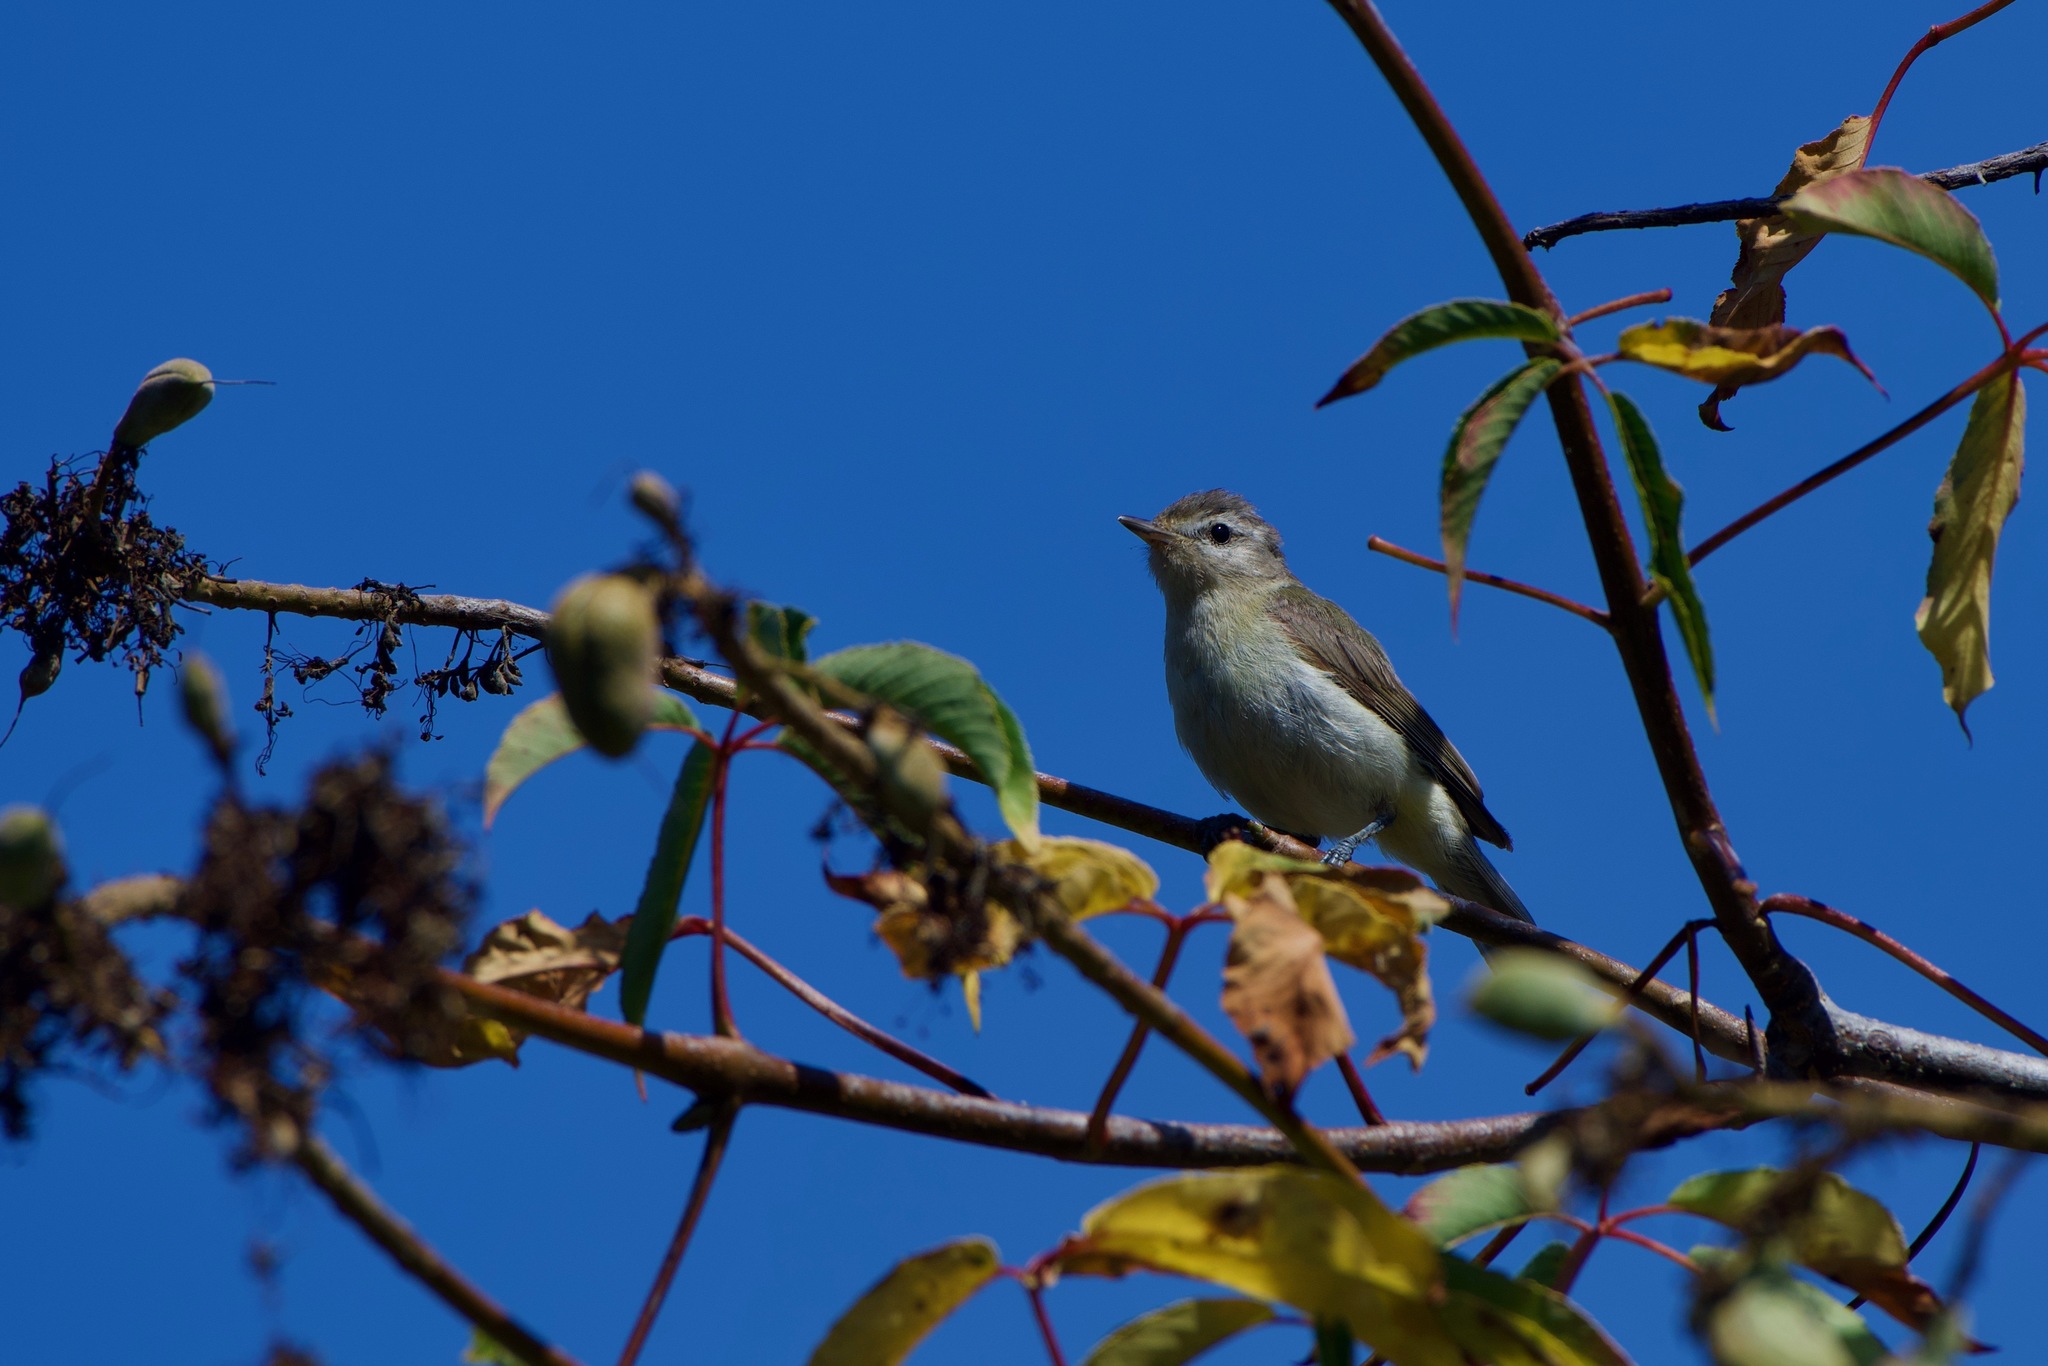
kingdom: Animalia
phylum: Chordata
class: Aves
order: Passeriformes
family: Vireonidae
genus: Vireo
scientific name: Vireo gilvus
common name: Warbling vireo
